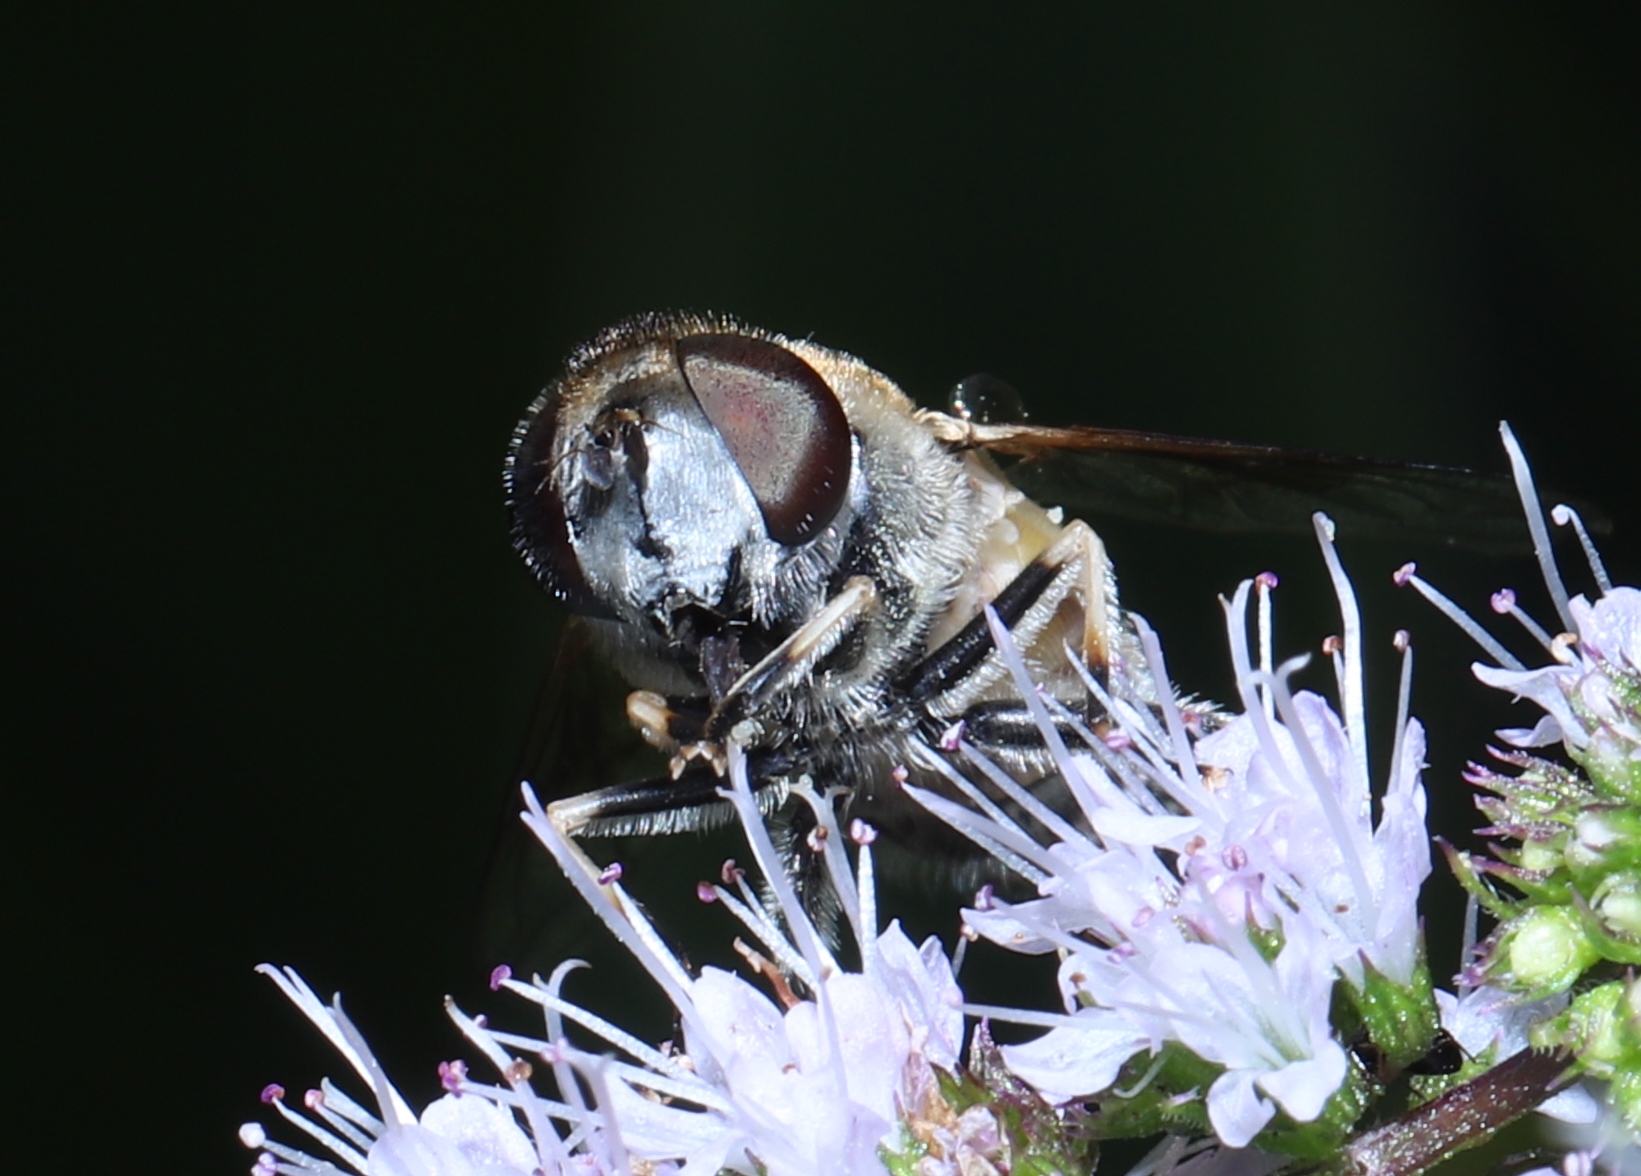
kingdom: Animalia
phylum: Arthropoda
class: Insecta
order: Diptera
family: Syrphidae
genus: Eristalis
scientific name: Eristalis arbustorum
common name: Hover fly
